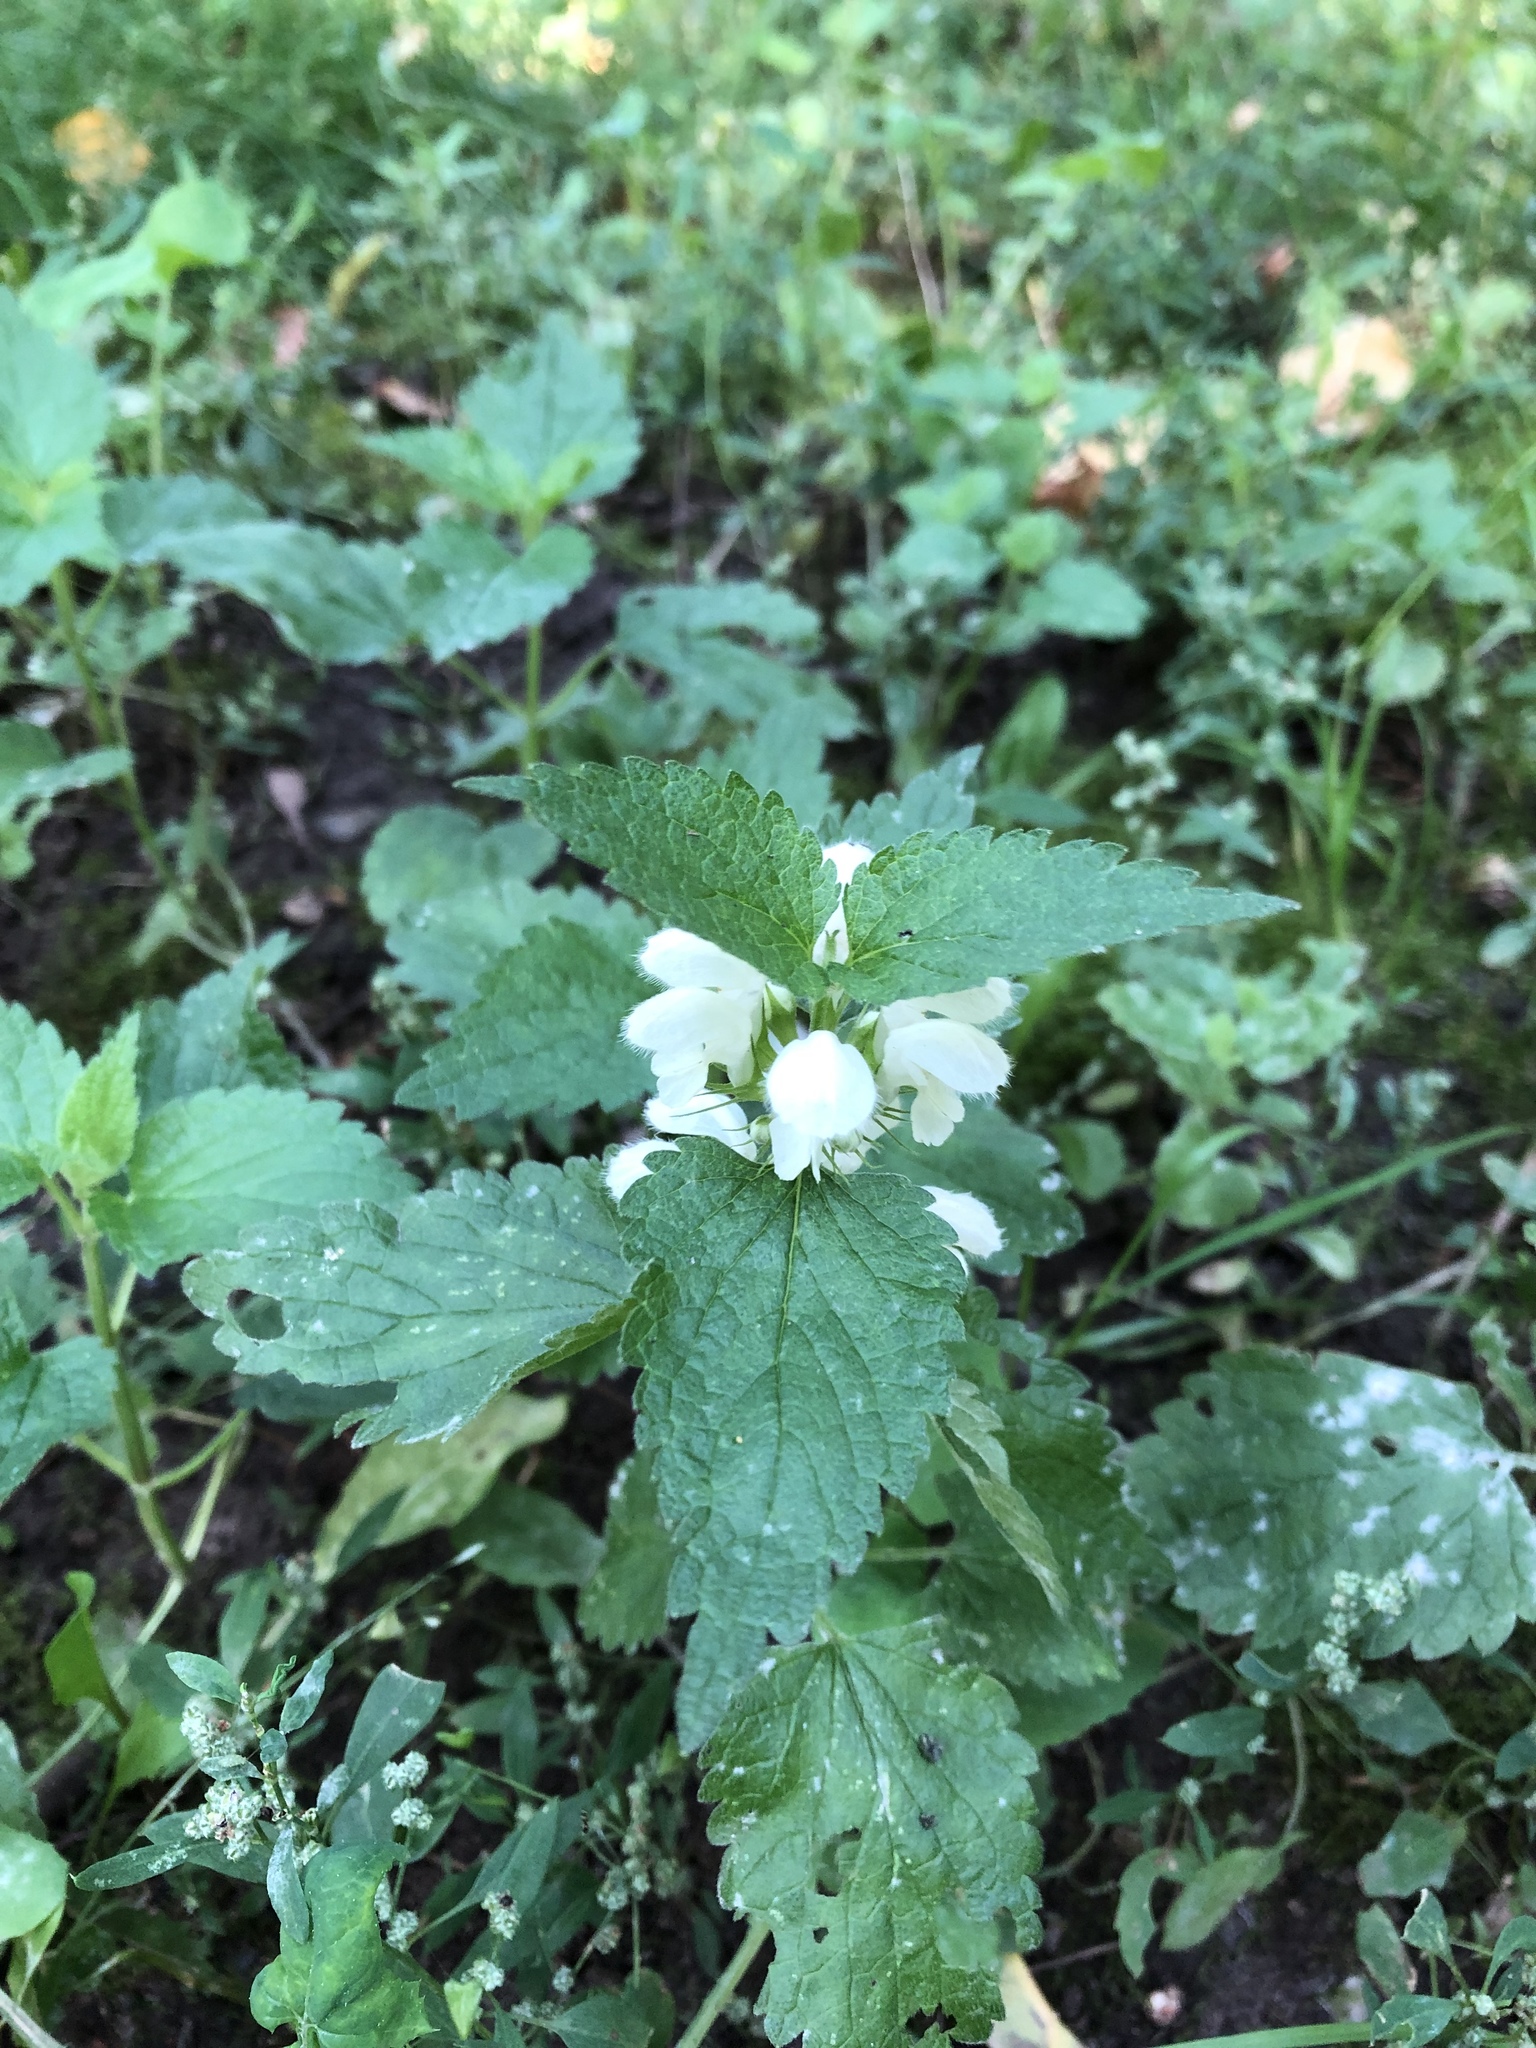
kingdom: Plantae
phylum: Tracheophyta
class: Magnoliopsida
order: Lamiales
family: Lamiaceae
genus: Lamium
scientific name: Lamium album
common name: White dead-nettle
